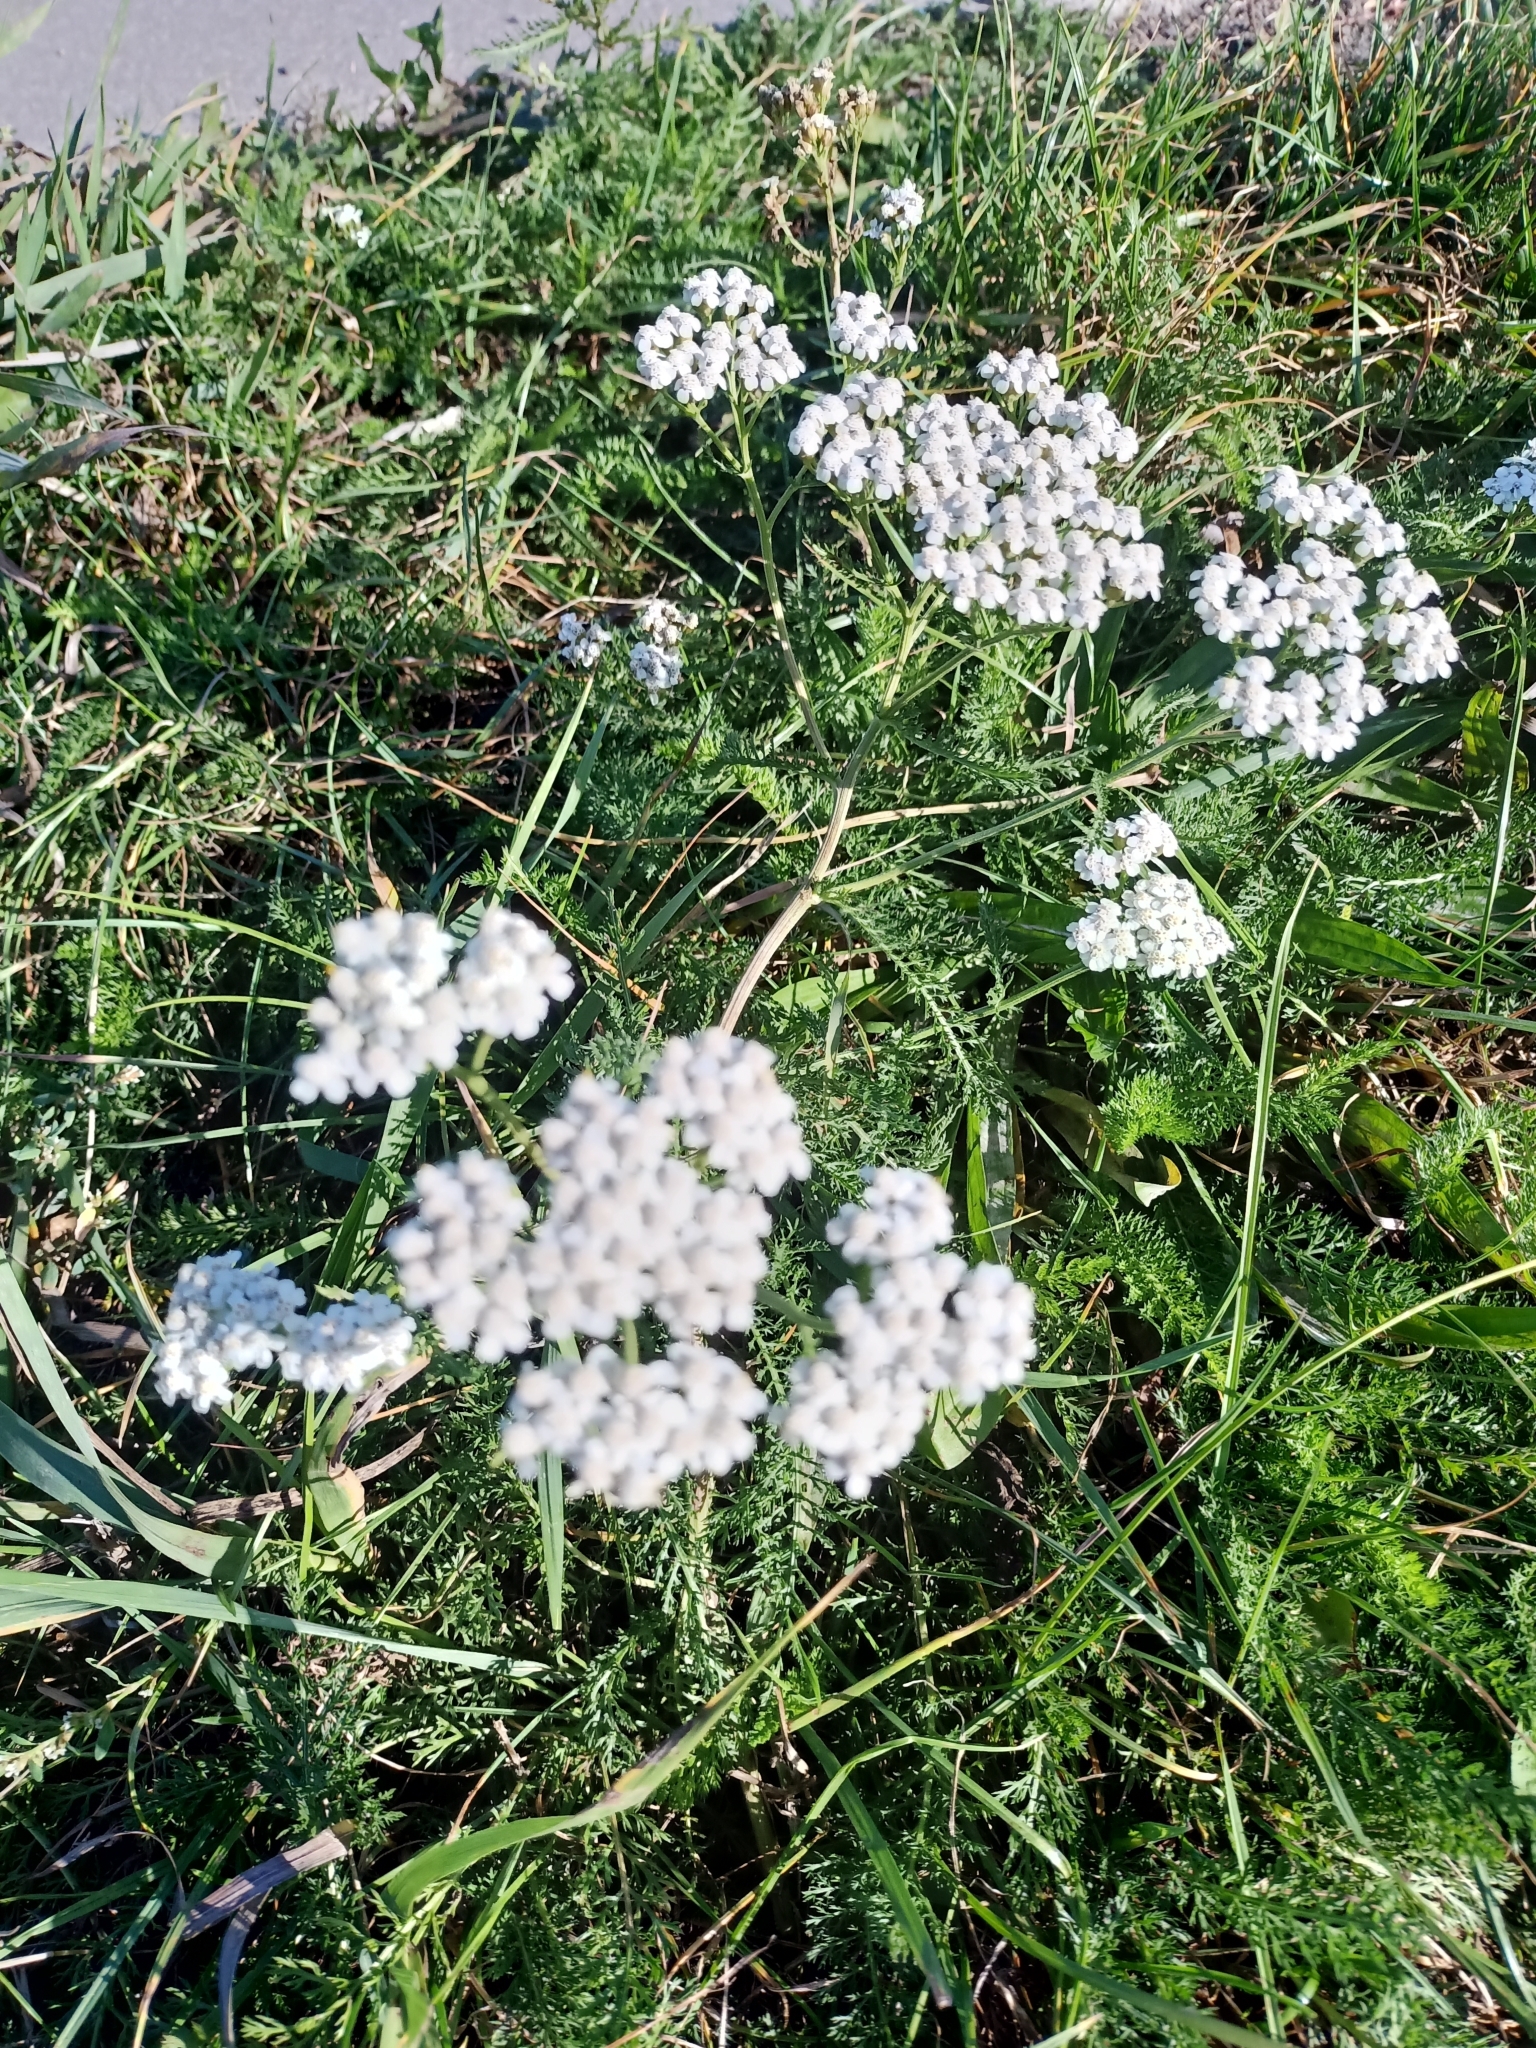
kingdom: Plantae
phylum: Tracheophyta
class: Magnoliopsida
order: Asterales
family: Asteraceae
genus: Achillea
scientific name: Achillea millefolium
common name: Yarrow
